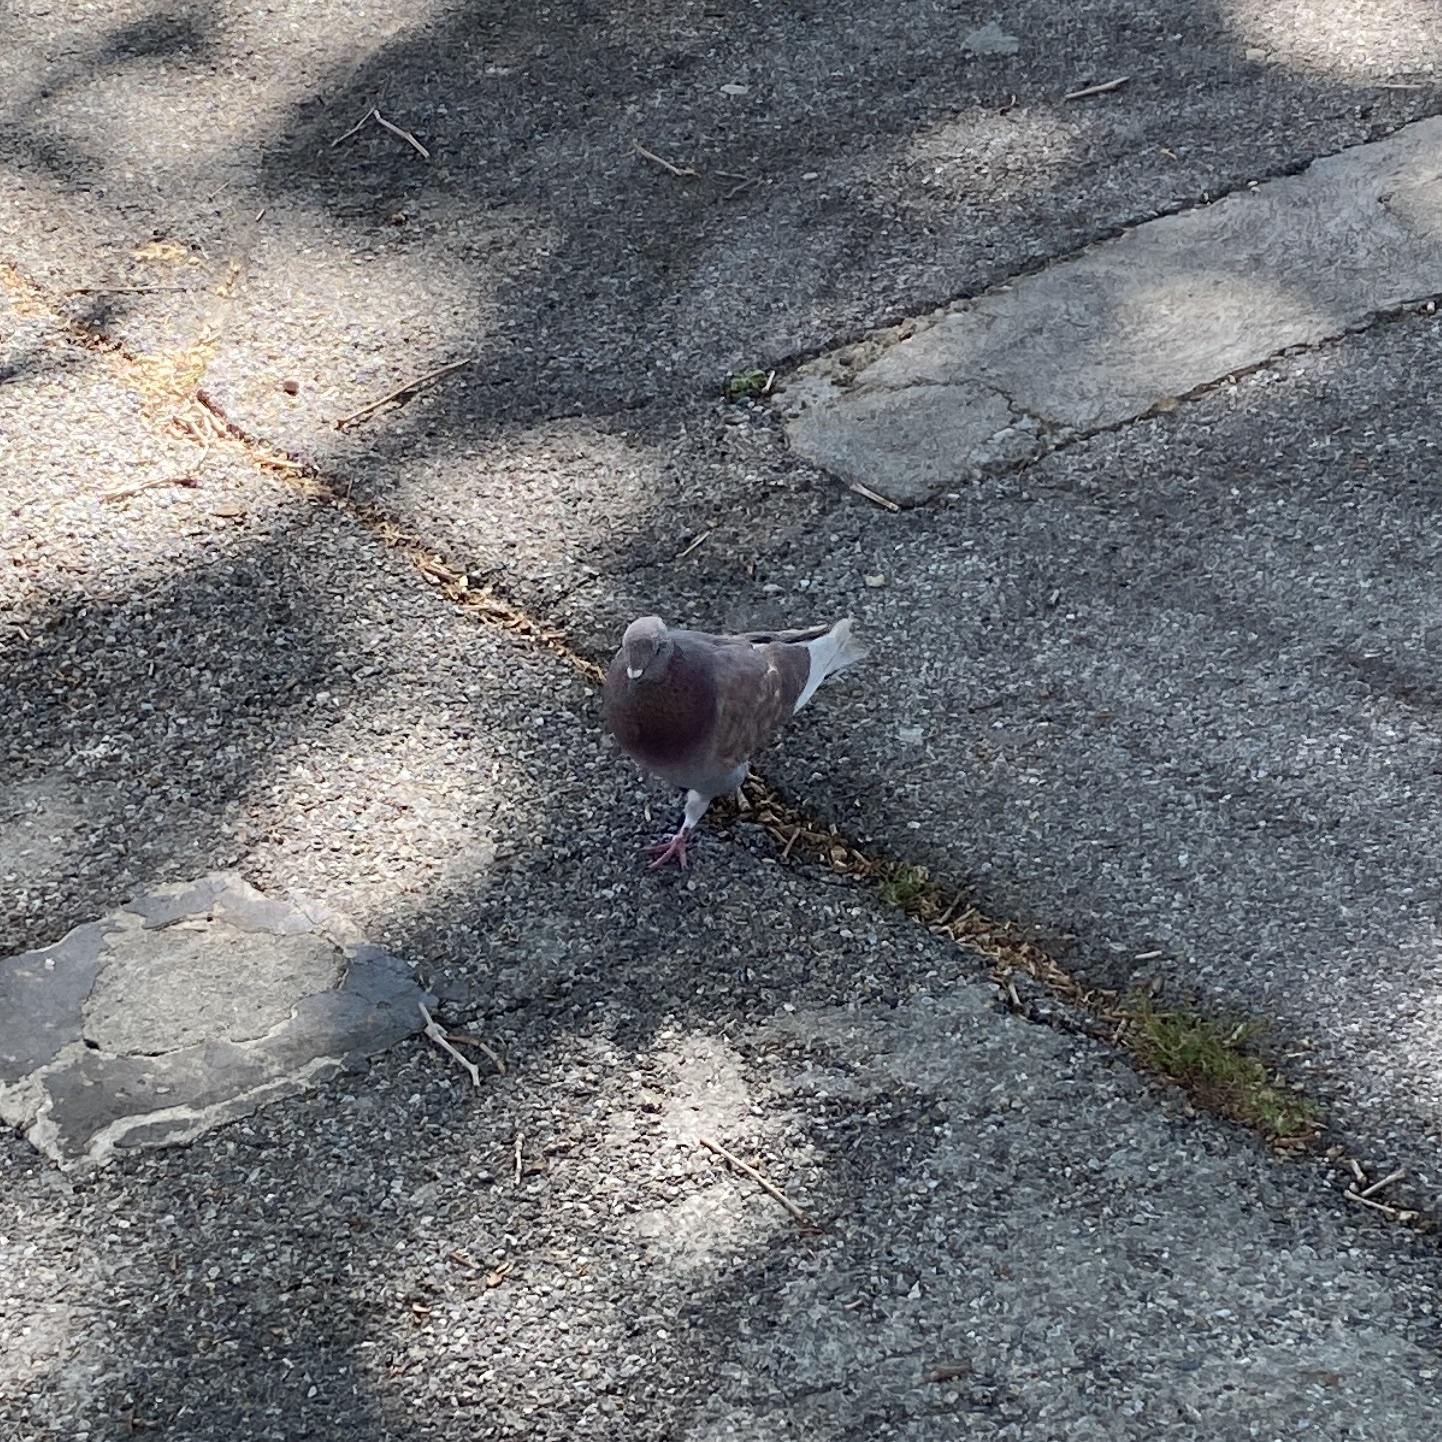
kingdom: Animalia
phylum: Chordata
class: Aves
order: Columbiformes
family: Columbidae
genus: Columba
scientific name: Columba livia
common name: Rock pigeon
